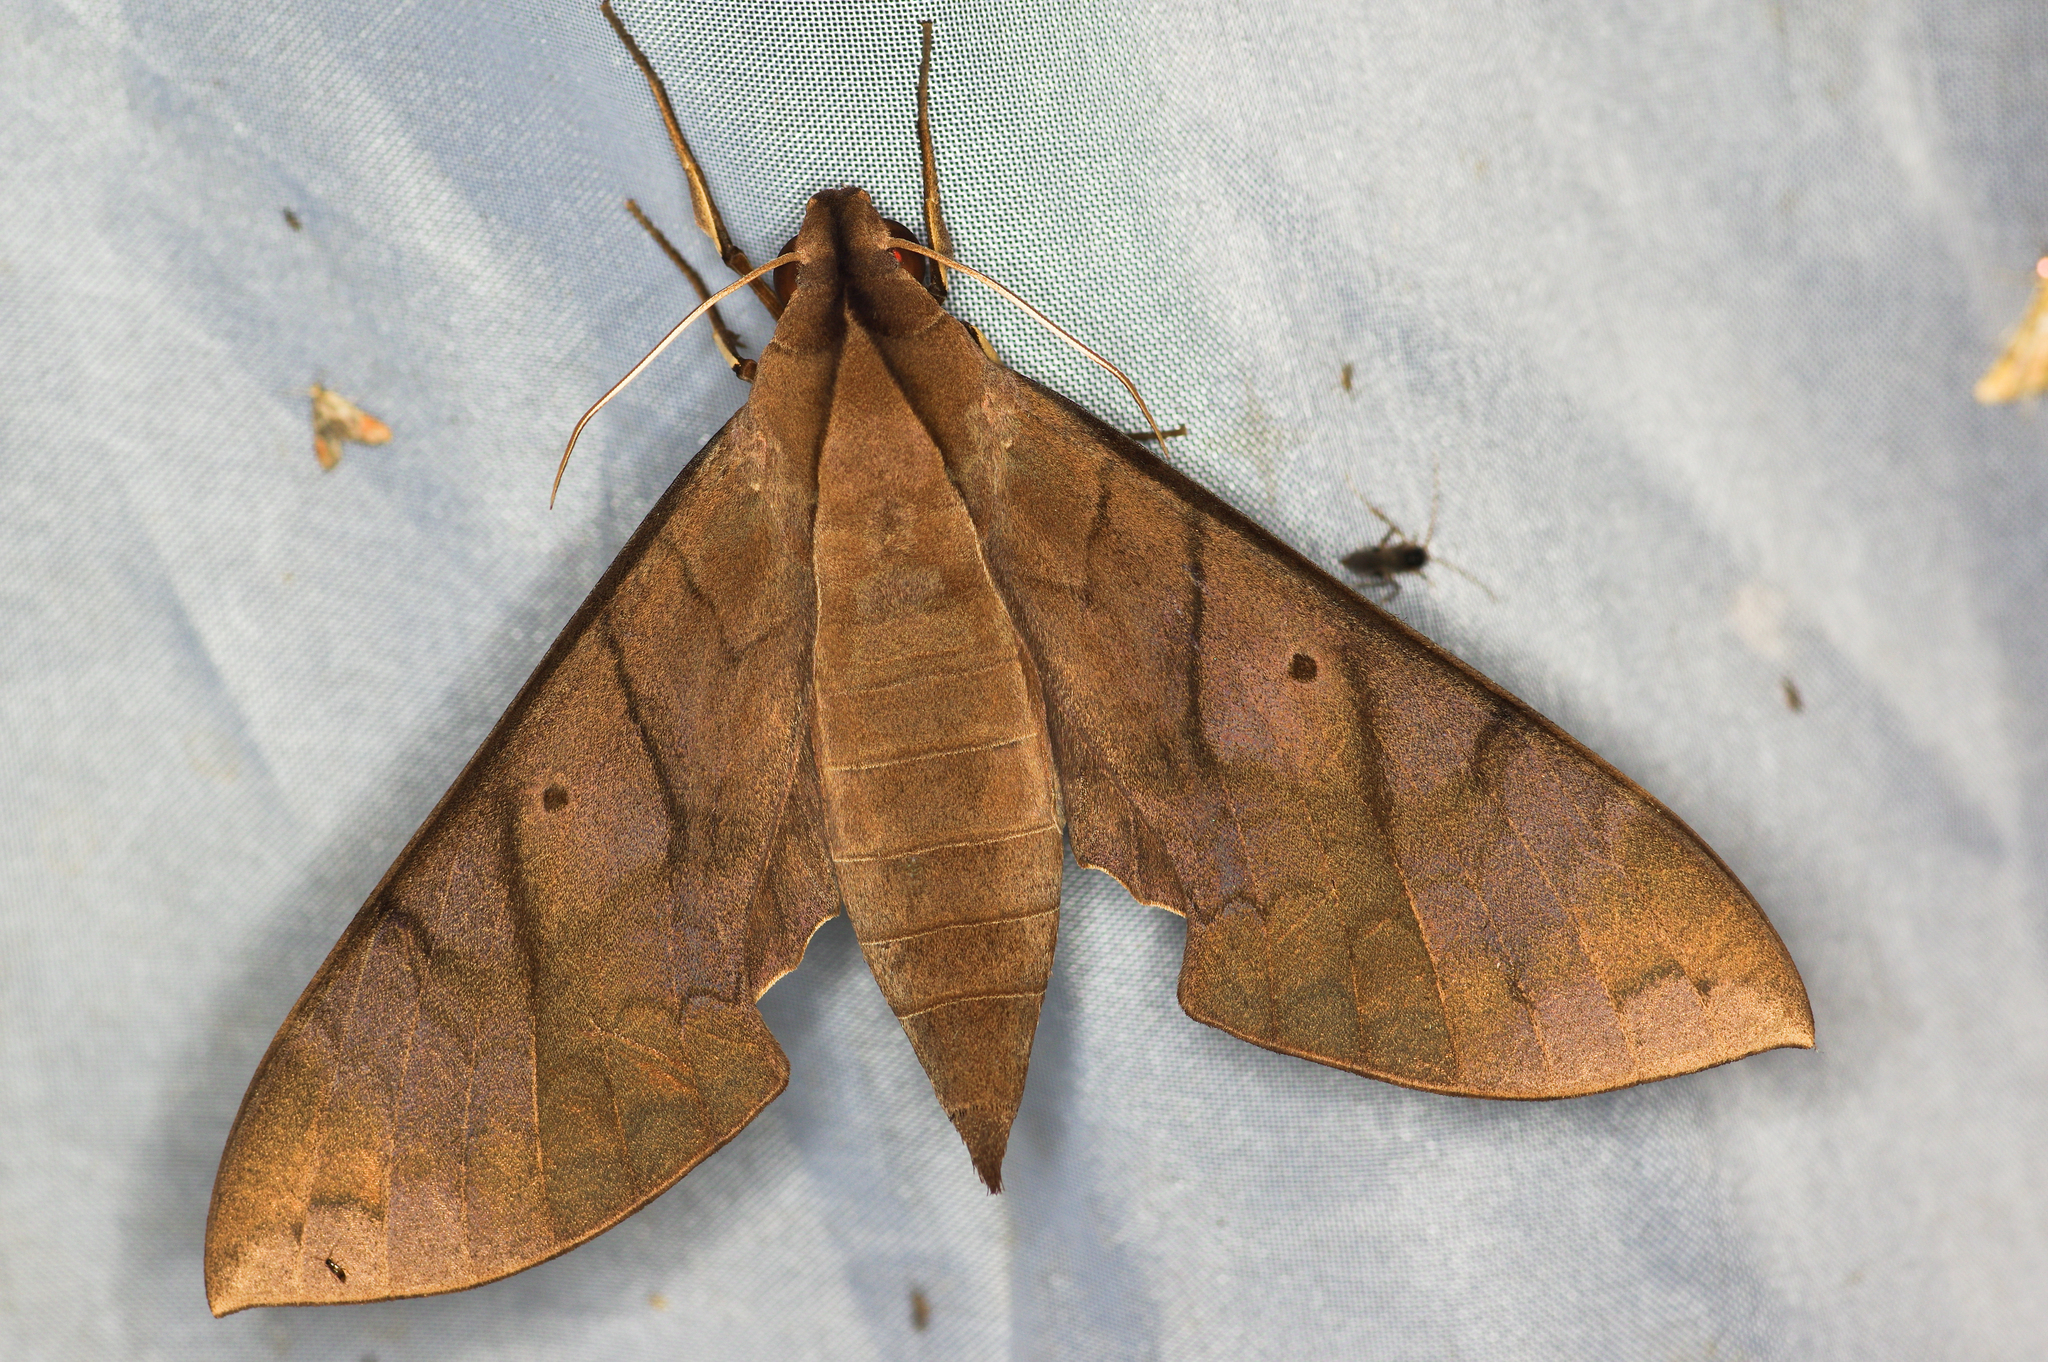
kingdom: Animalia
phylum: Arthropoda
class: Insecta
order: Lepidoptera
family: Sphingidae
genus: Pachylia
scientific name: Pachylia darceta
